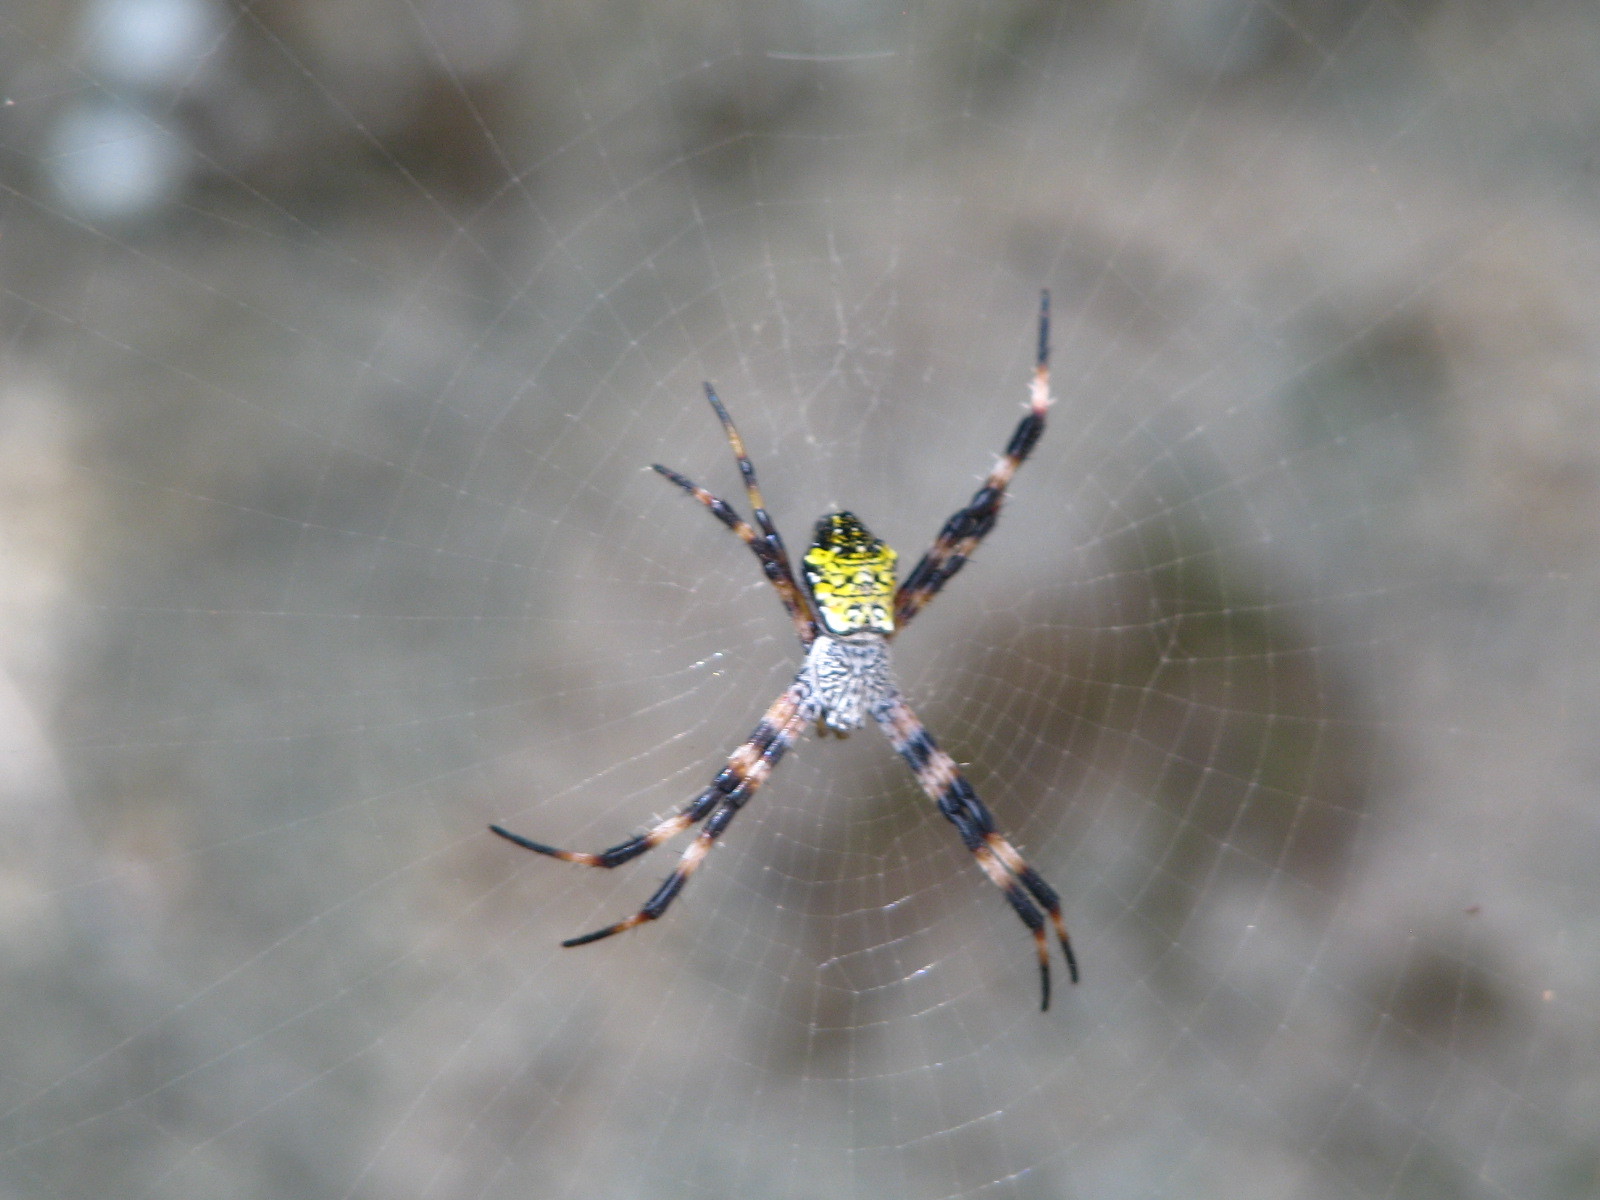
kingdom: Animalia
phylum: Arthropoda
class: Arachnida
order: Araneae
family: Araneidae
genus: Argiope
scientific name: Argiope appensa
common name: Garden spider
